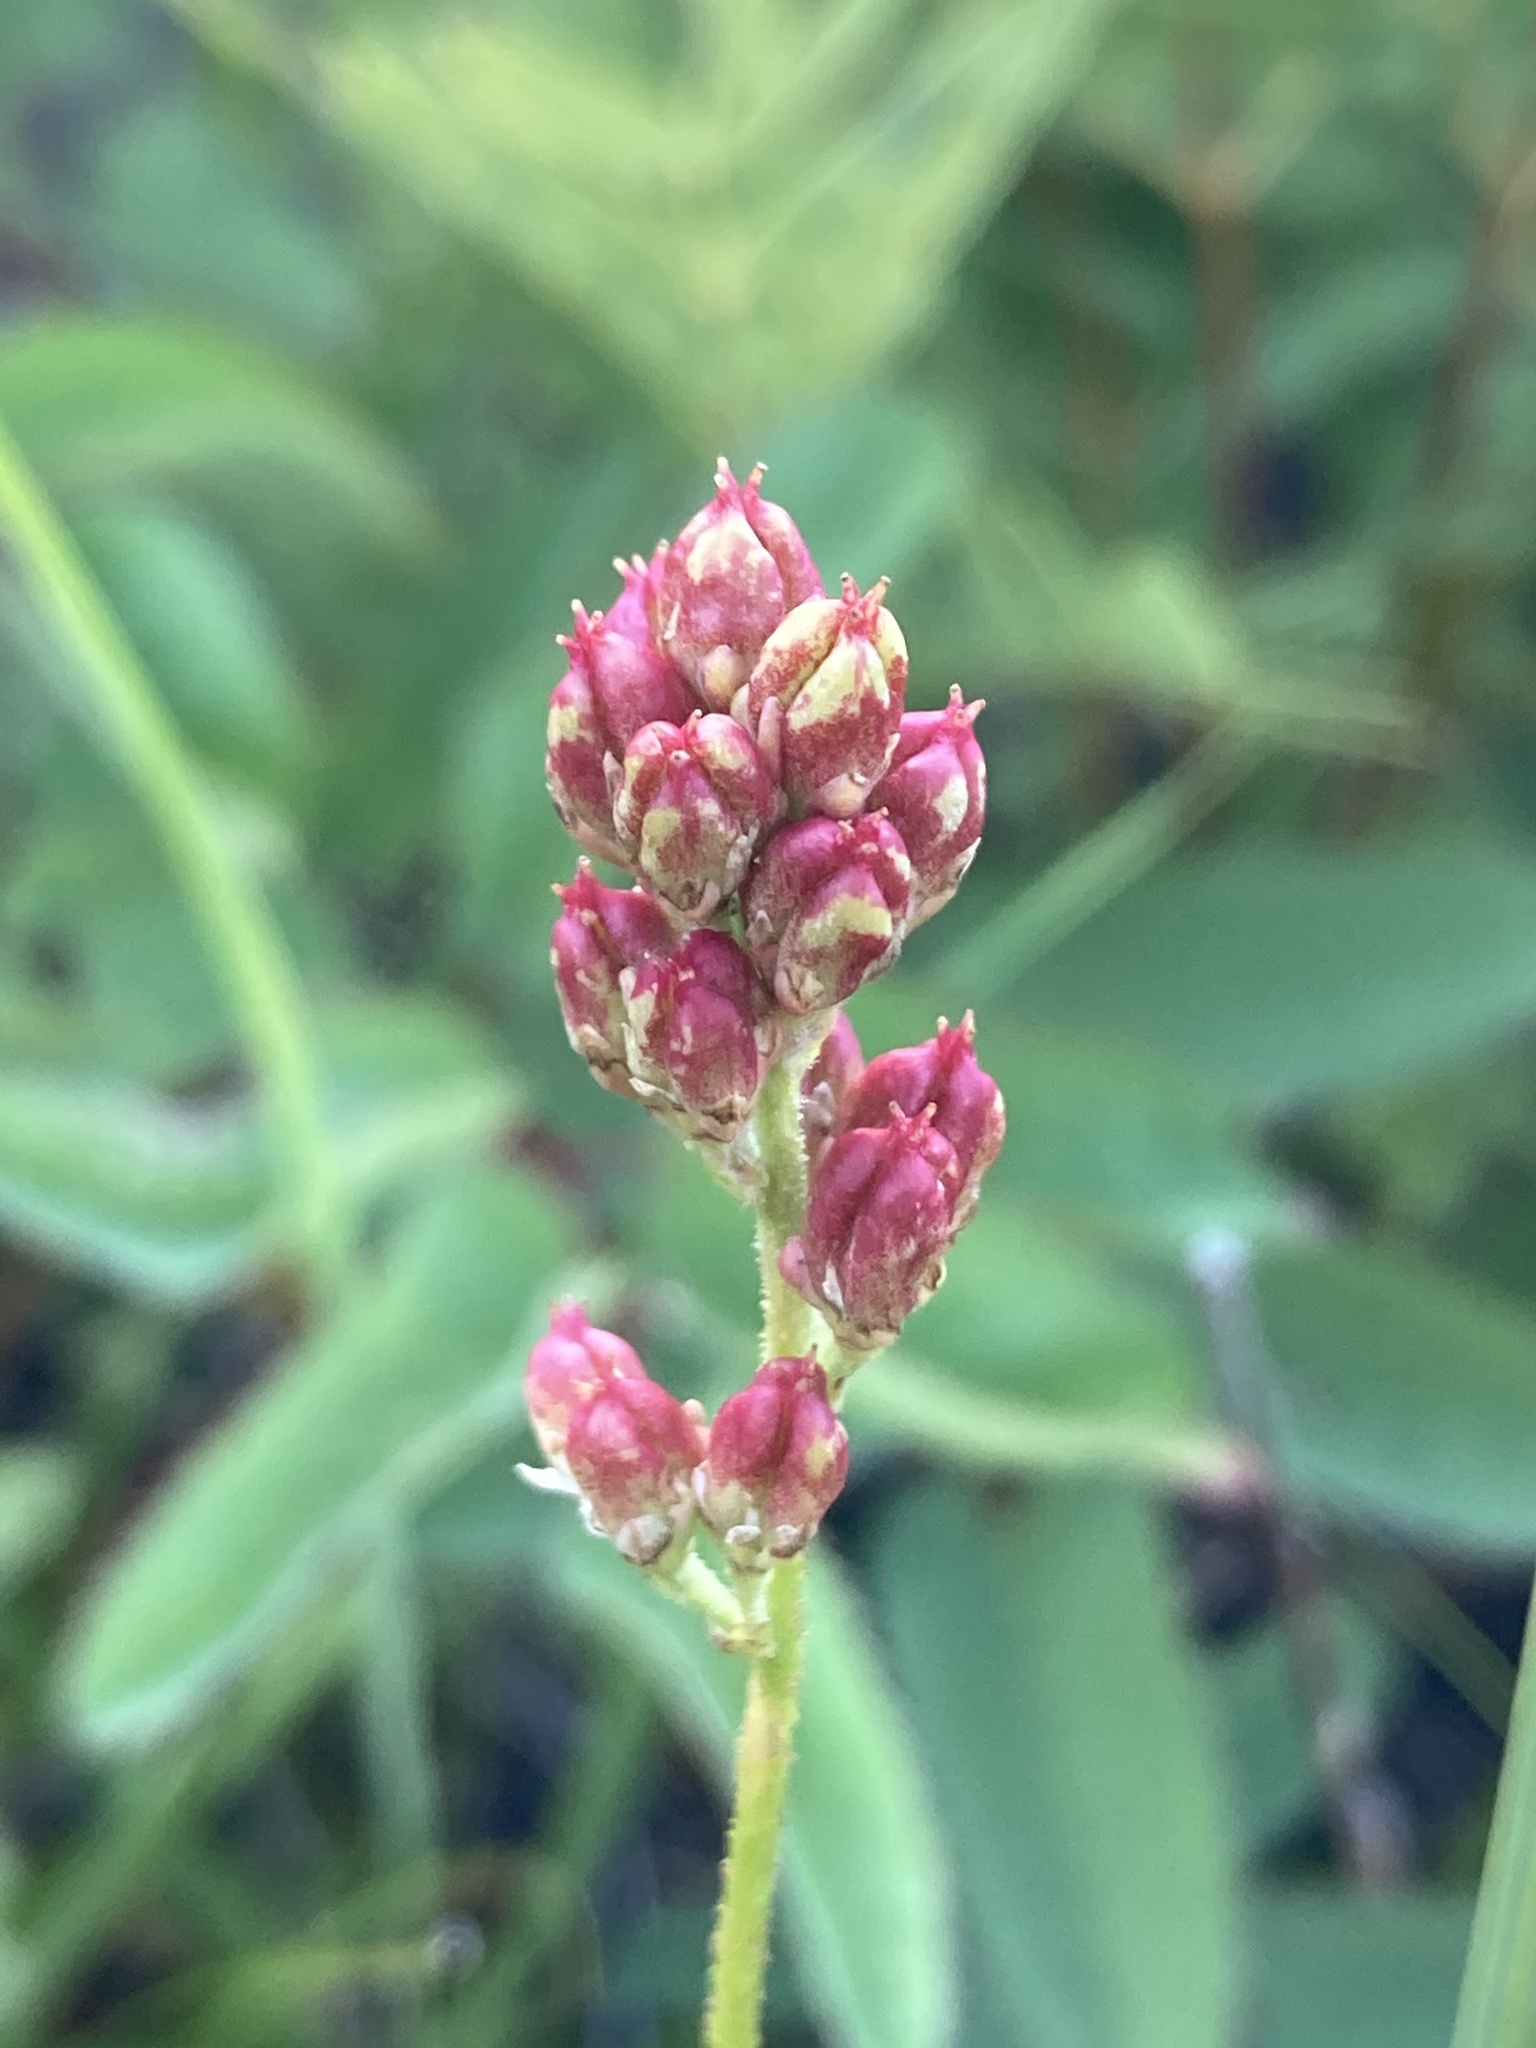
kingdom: Plantae
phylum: Tracheophyta
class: Liliopsida
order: Alismatales
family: Tofieldiaceae
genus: Triantha
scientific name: Triantha glutinosa
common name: Glutinous tofieldia
